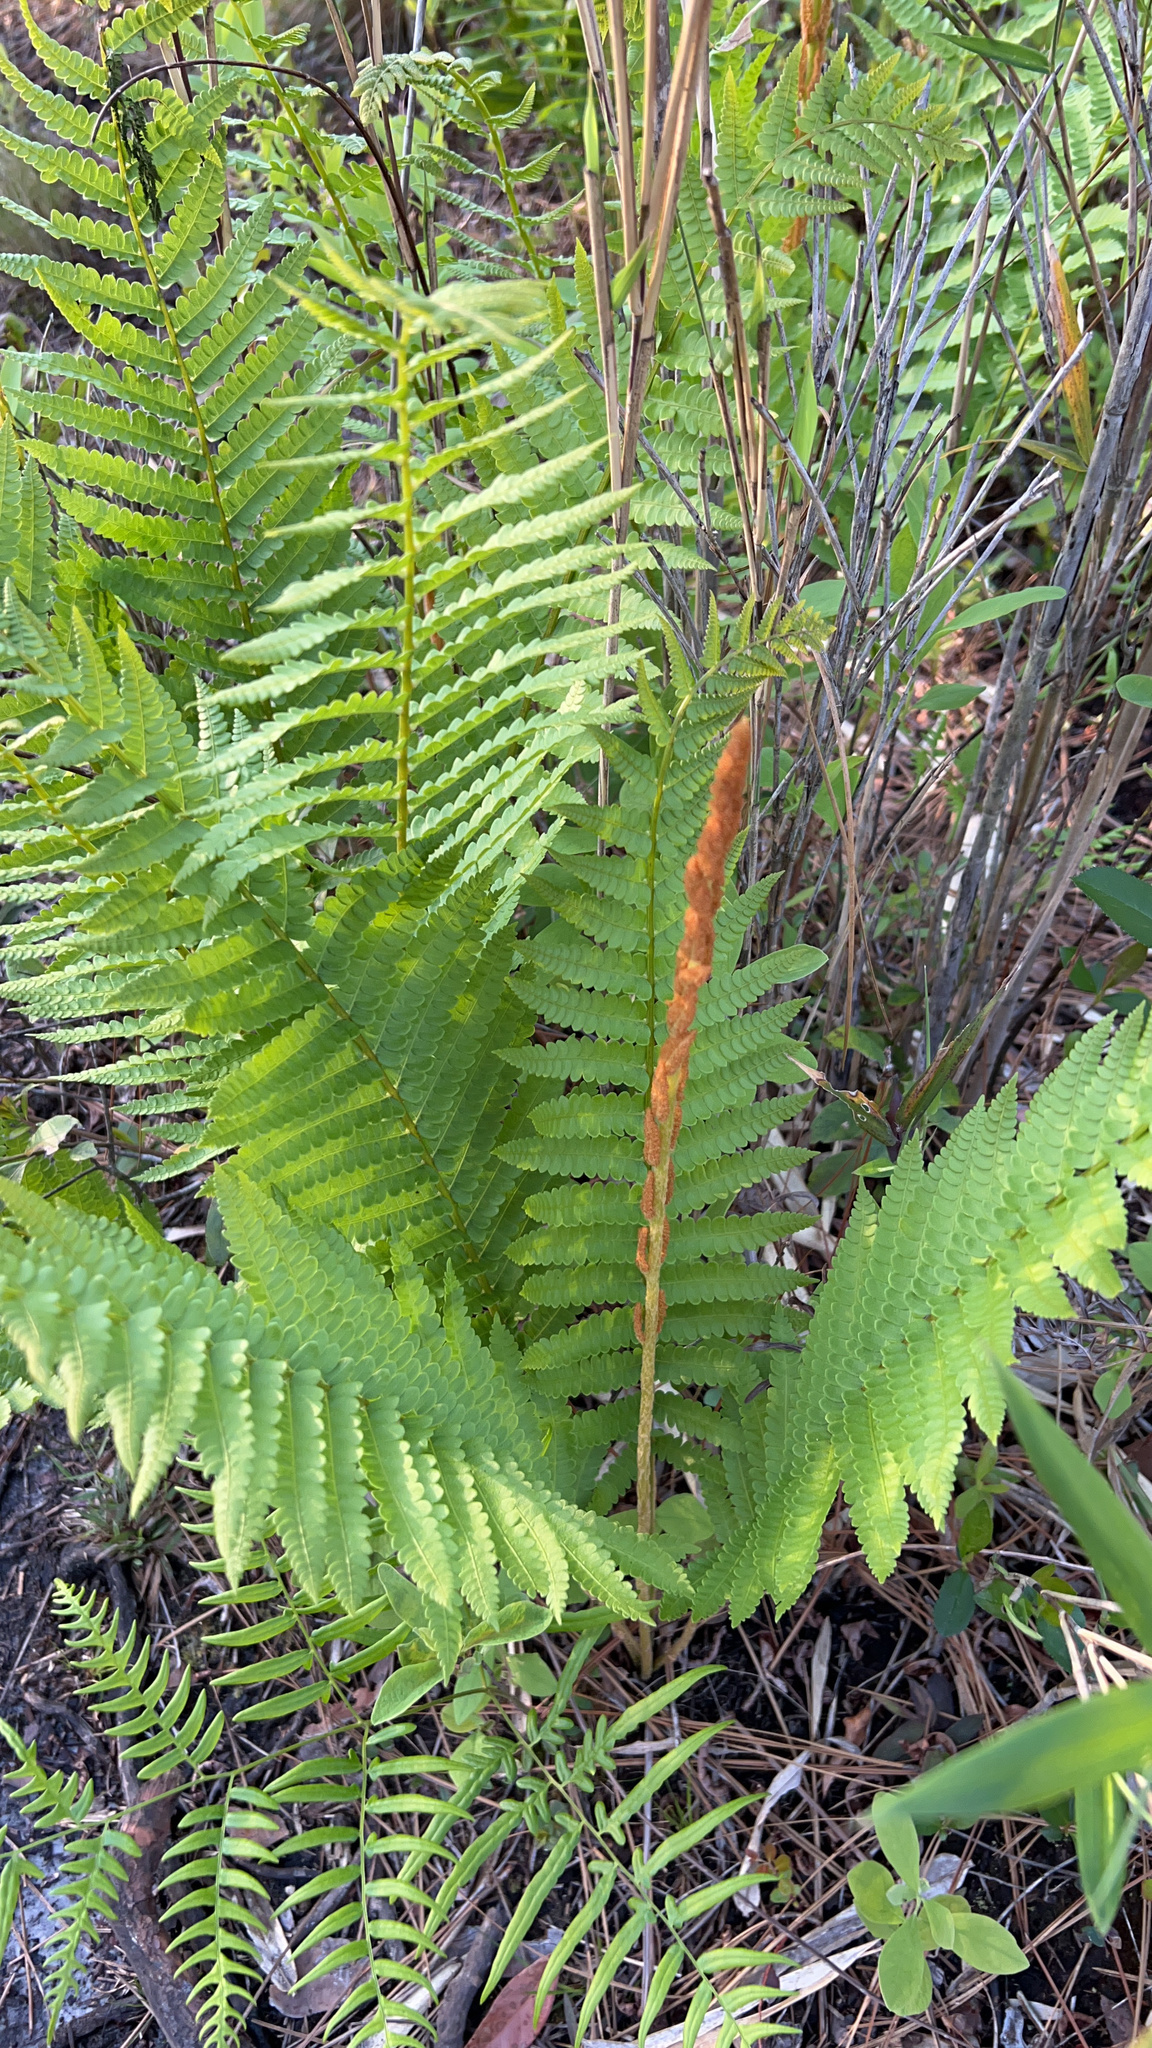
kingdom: Plantae
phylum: Tracheophyta
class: Polypodiopsida
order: Osmundales
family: Osmundaceae
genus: Osmundastrum
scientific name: Osmundastrum cinnamomeum
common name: Cinnamon fern
